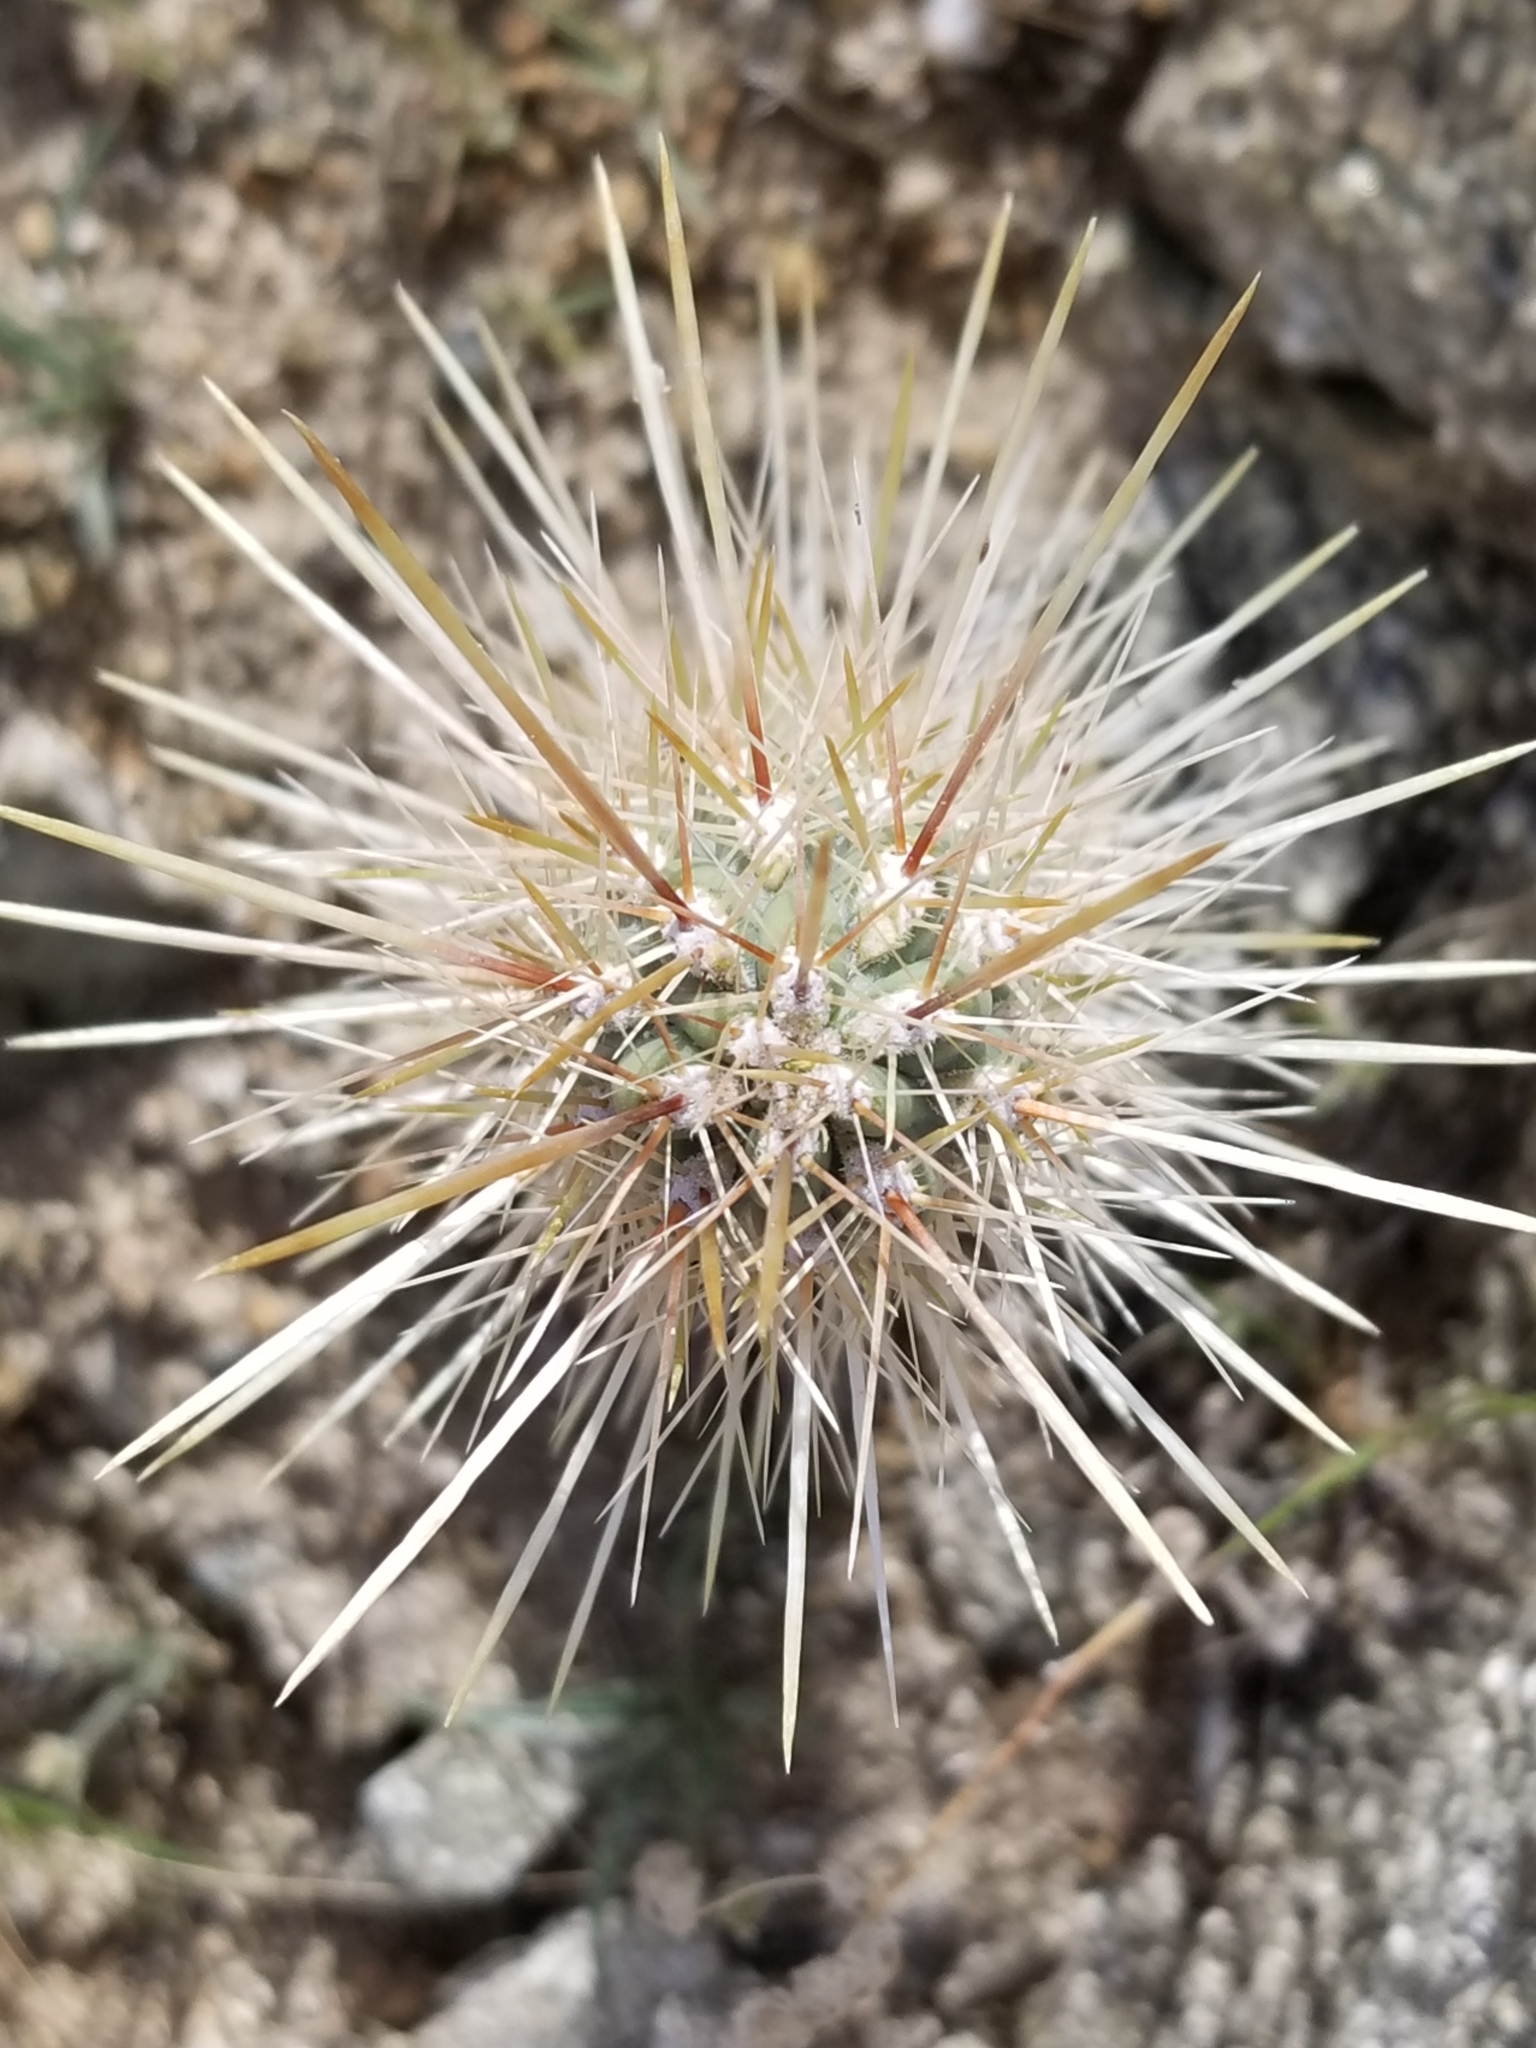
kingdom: Plantae
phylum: Tracheophyta
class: Magnoliopsida
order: Caryophyllales
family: Cactaceae
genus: Cylindropuntia
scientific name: Cylindropuntia ganderi
